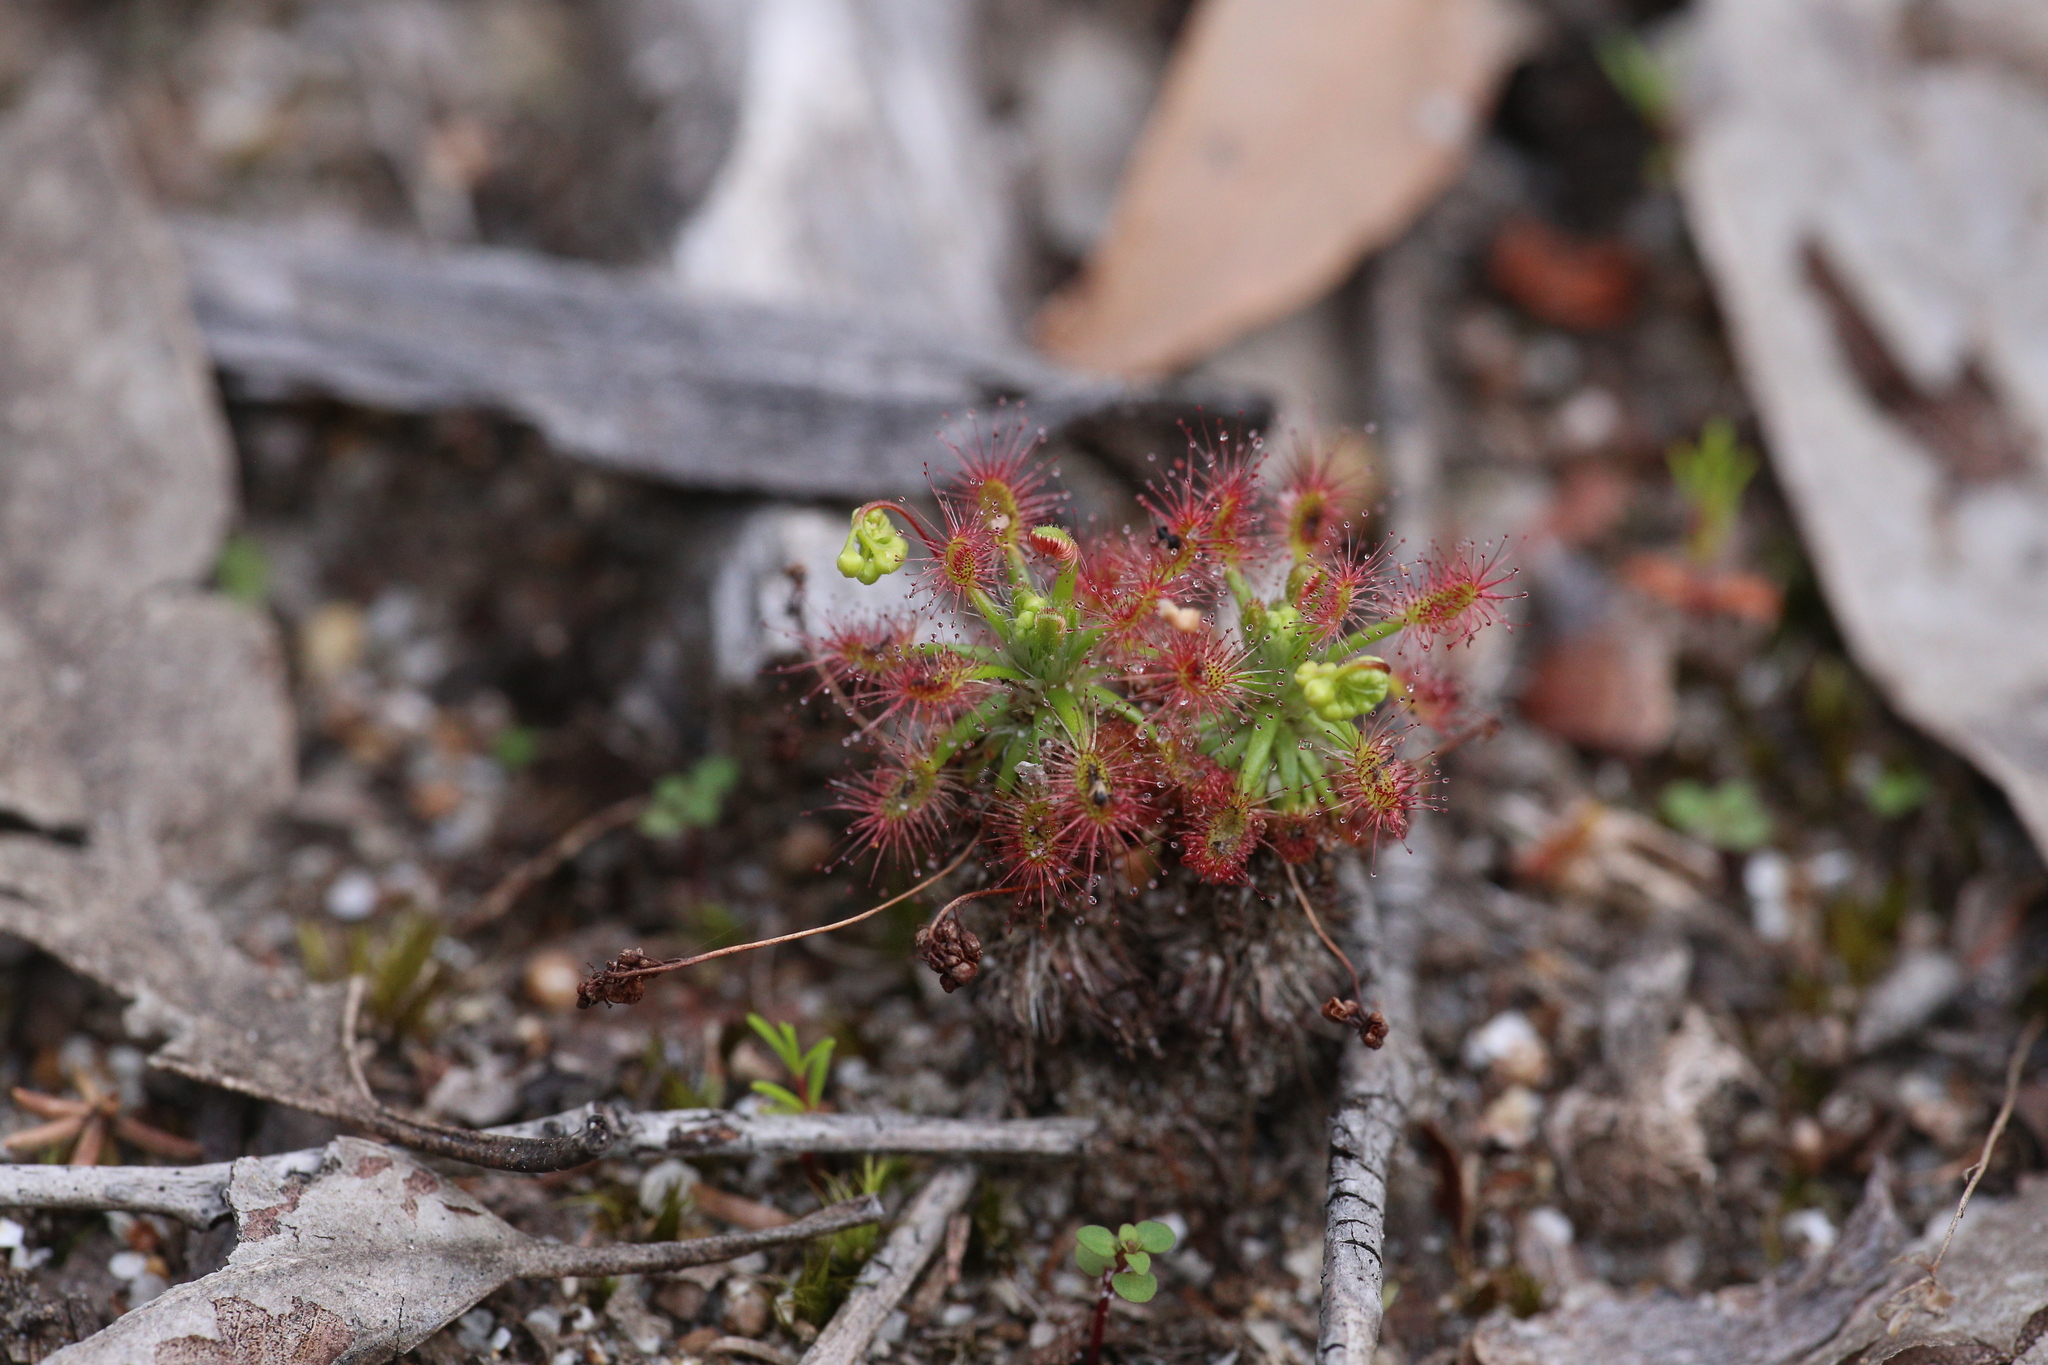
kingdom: Plantae
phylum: Tracheophyta
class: Magnoliopsida
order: Caryophyllales
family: Droseraceae
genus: Drosera
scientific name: Drosera paleacea
